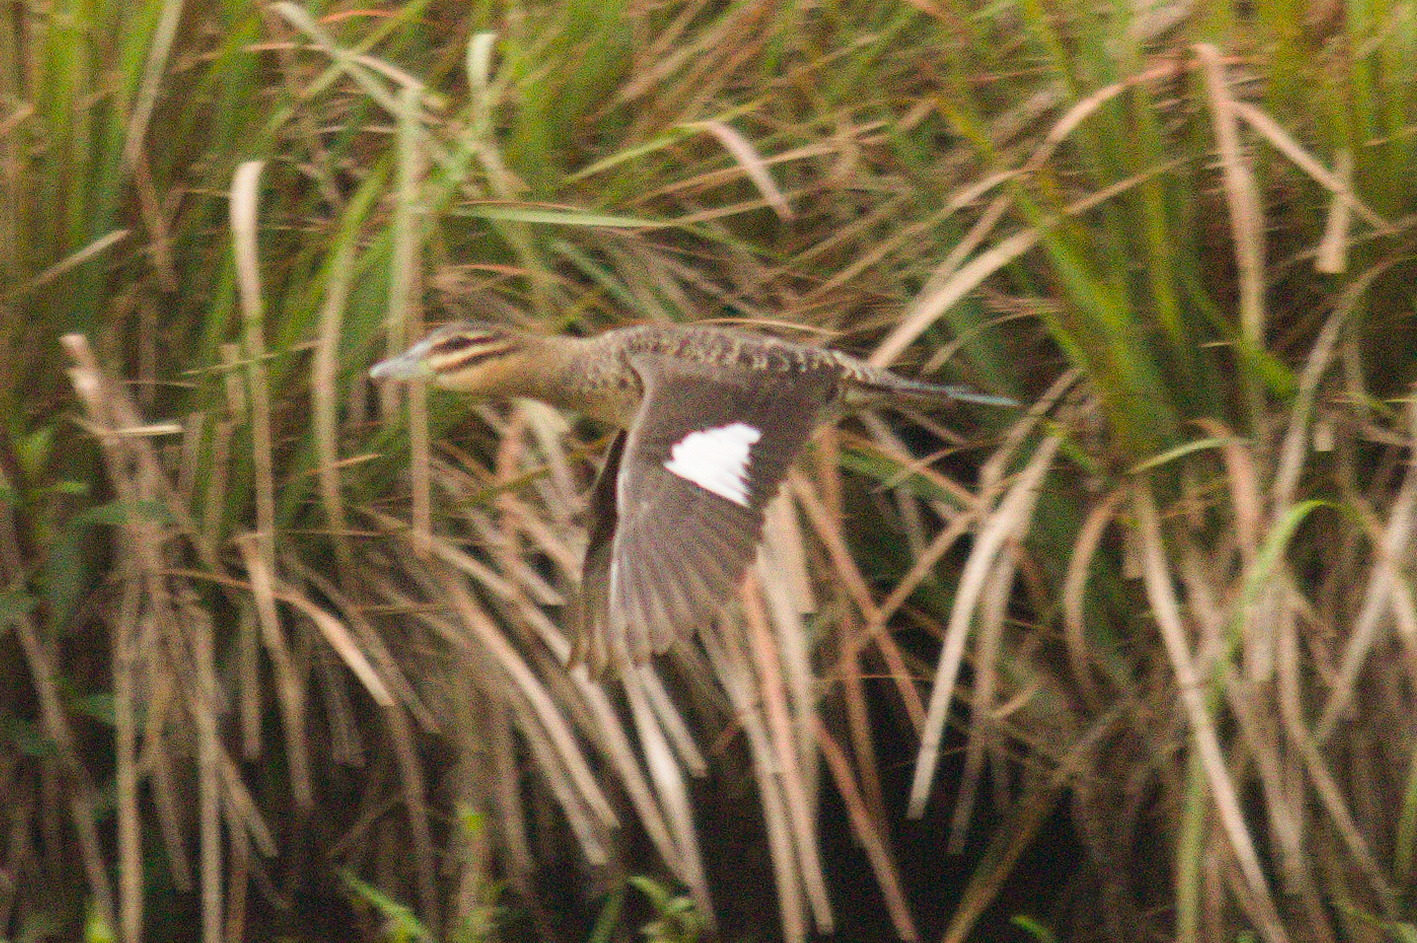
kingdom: Animalia
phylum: Chordata
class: Aves
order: Anseriformes
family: Anatidae
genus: Nomonyx
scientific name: Nomonyx dominicus
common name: Masked duck
